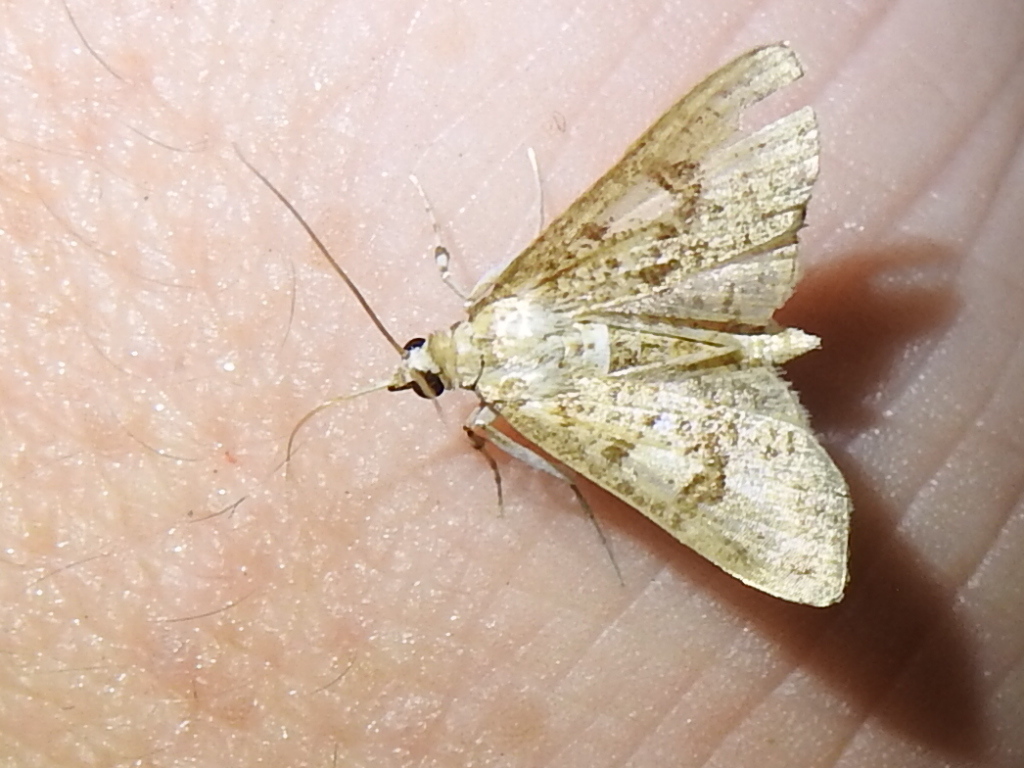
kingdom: Animalia
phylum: Arthropoda
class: Insecta
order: Lepidoptera
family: Crambidae
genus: Palpita
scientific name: Palpita freemanalis
